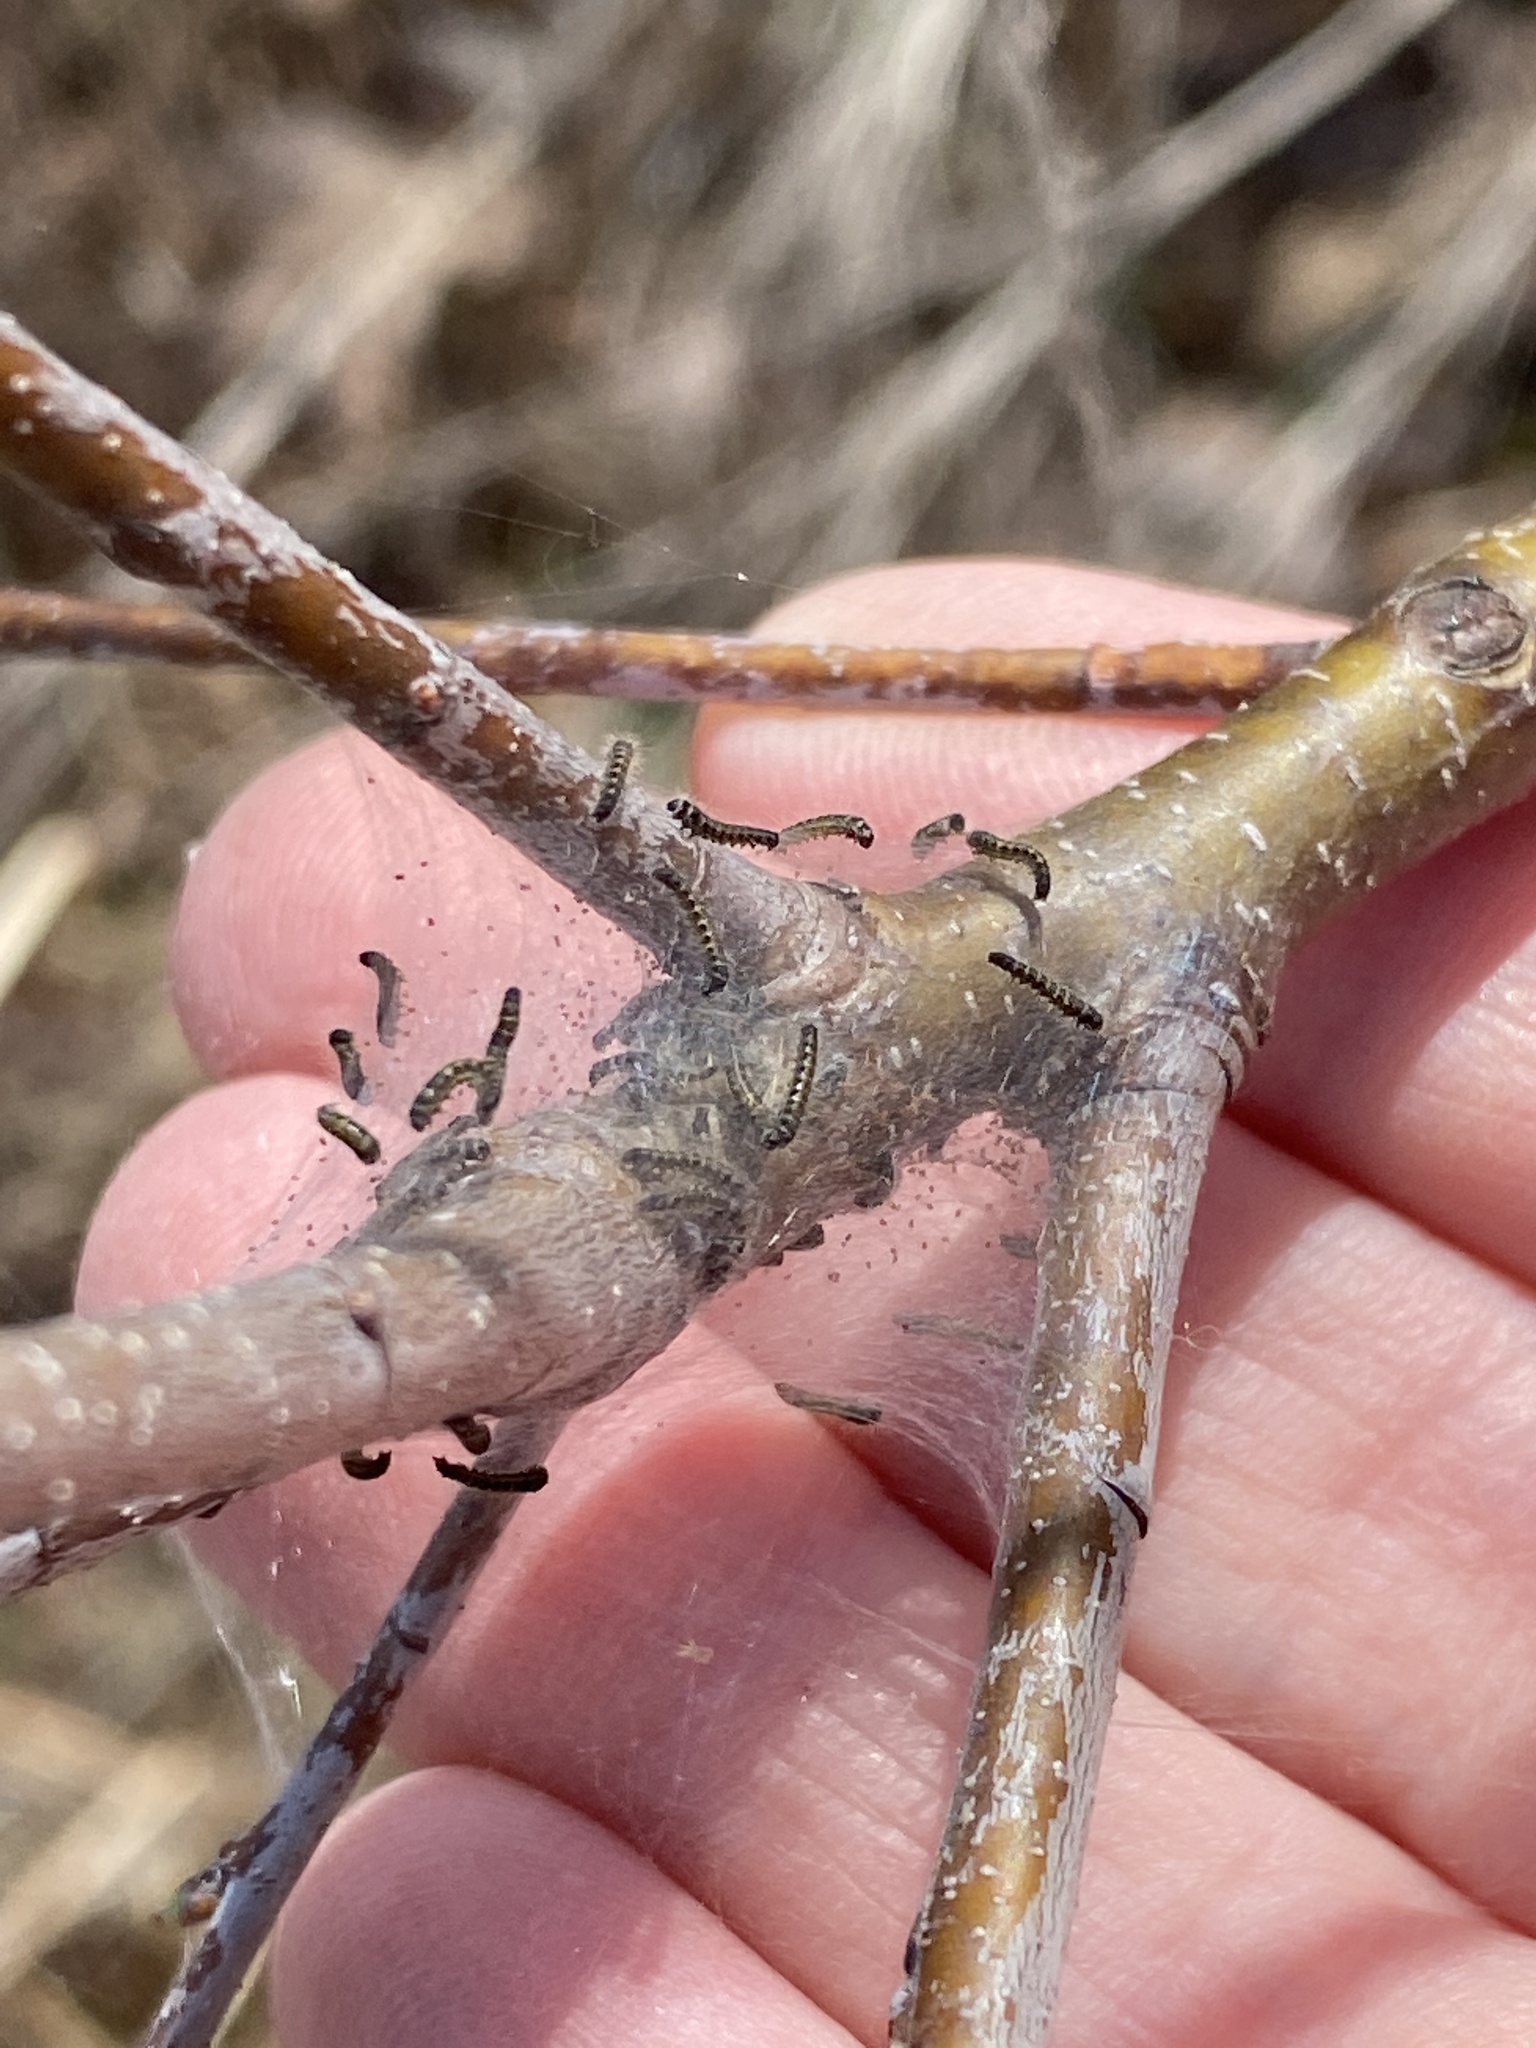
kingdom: Animalia
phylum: Arthropoda
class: Insecta
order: Lepidoptera
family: Lasiocampidae
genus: Malacosoma
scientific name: Malacosoma americana
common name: Eastern tent caterpillar moth
